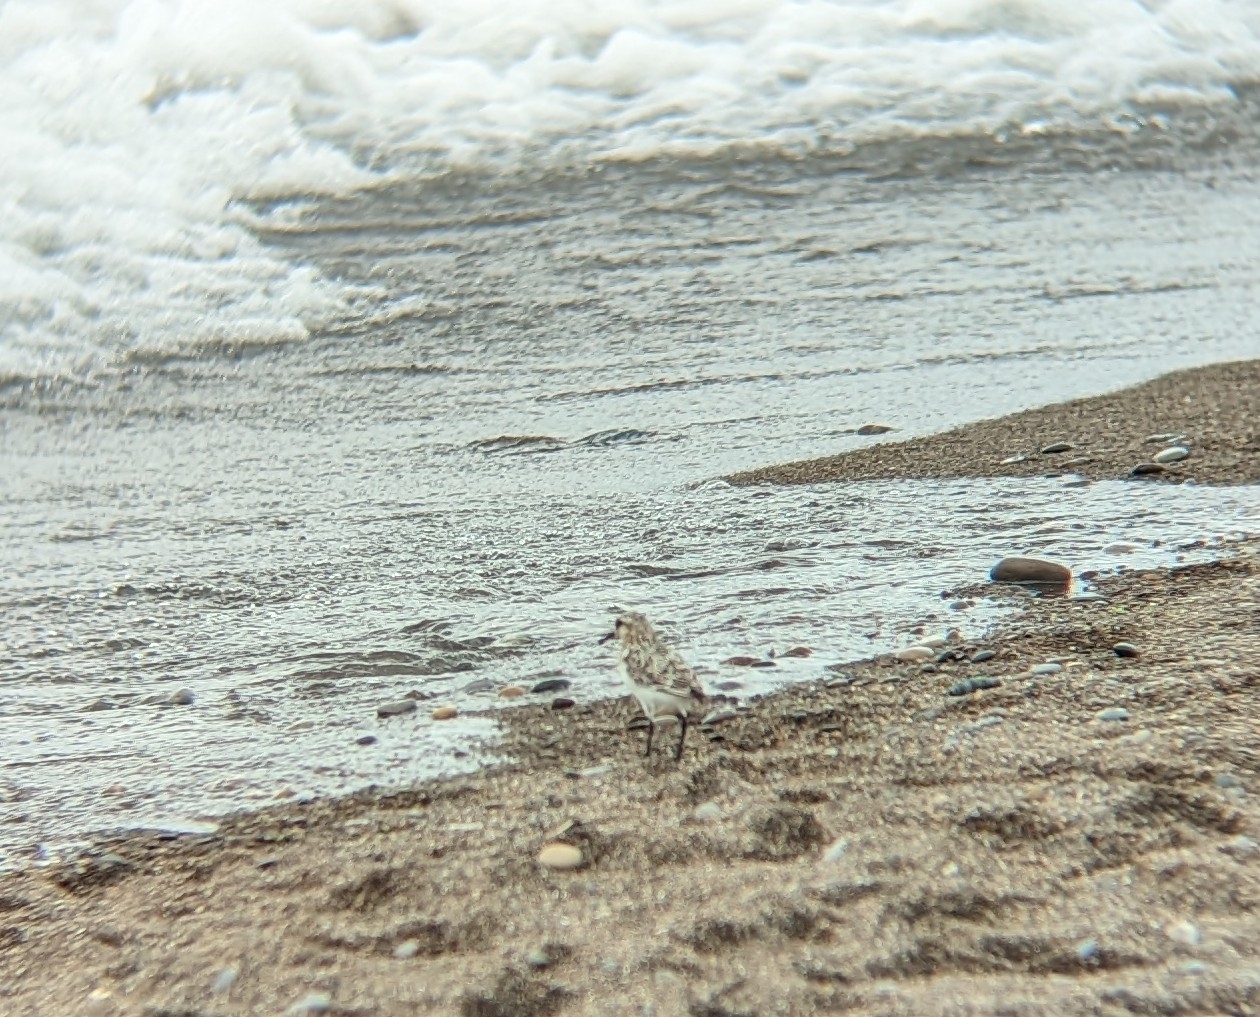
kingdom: Animalia
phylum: Chordata
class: Aves
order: Charadriiformes
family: Scolopacidae
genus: Calidris
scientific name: Calidris
